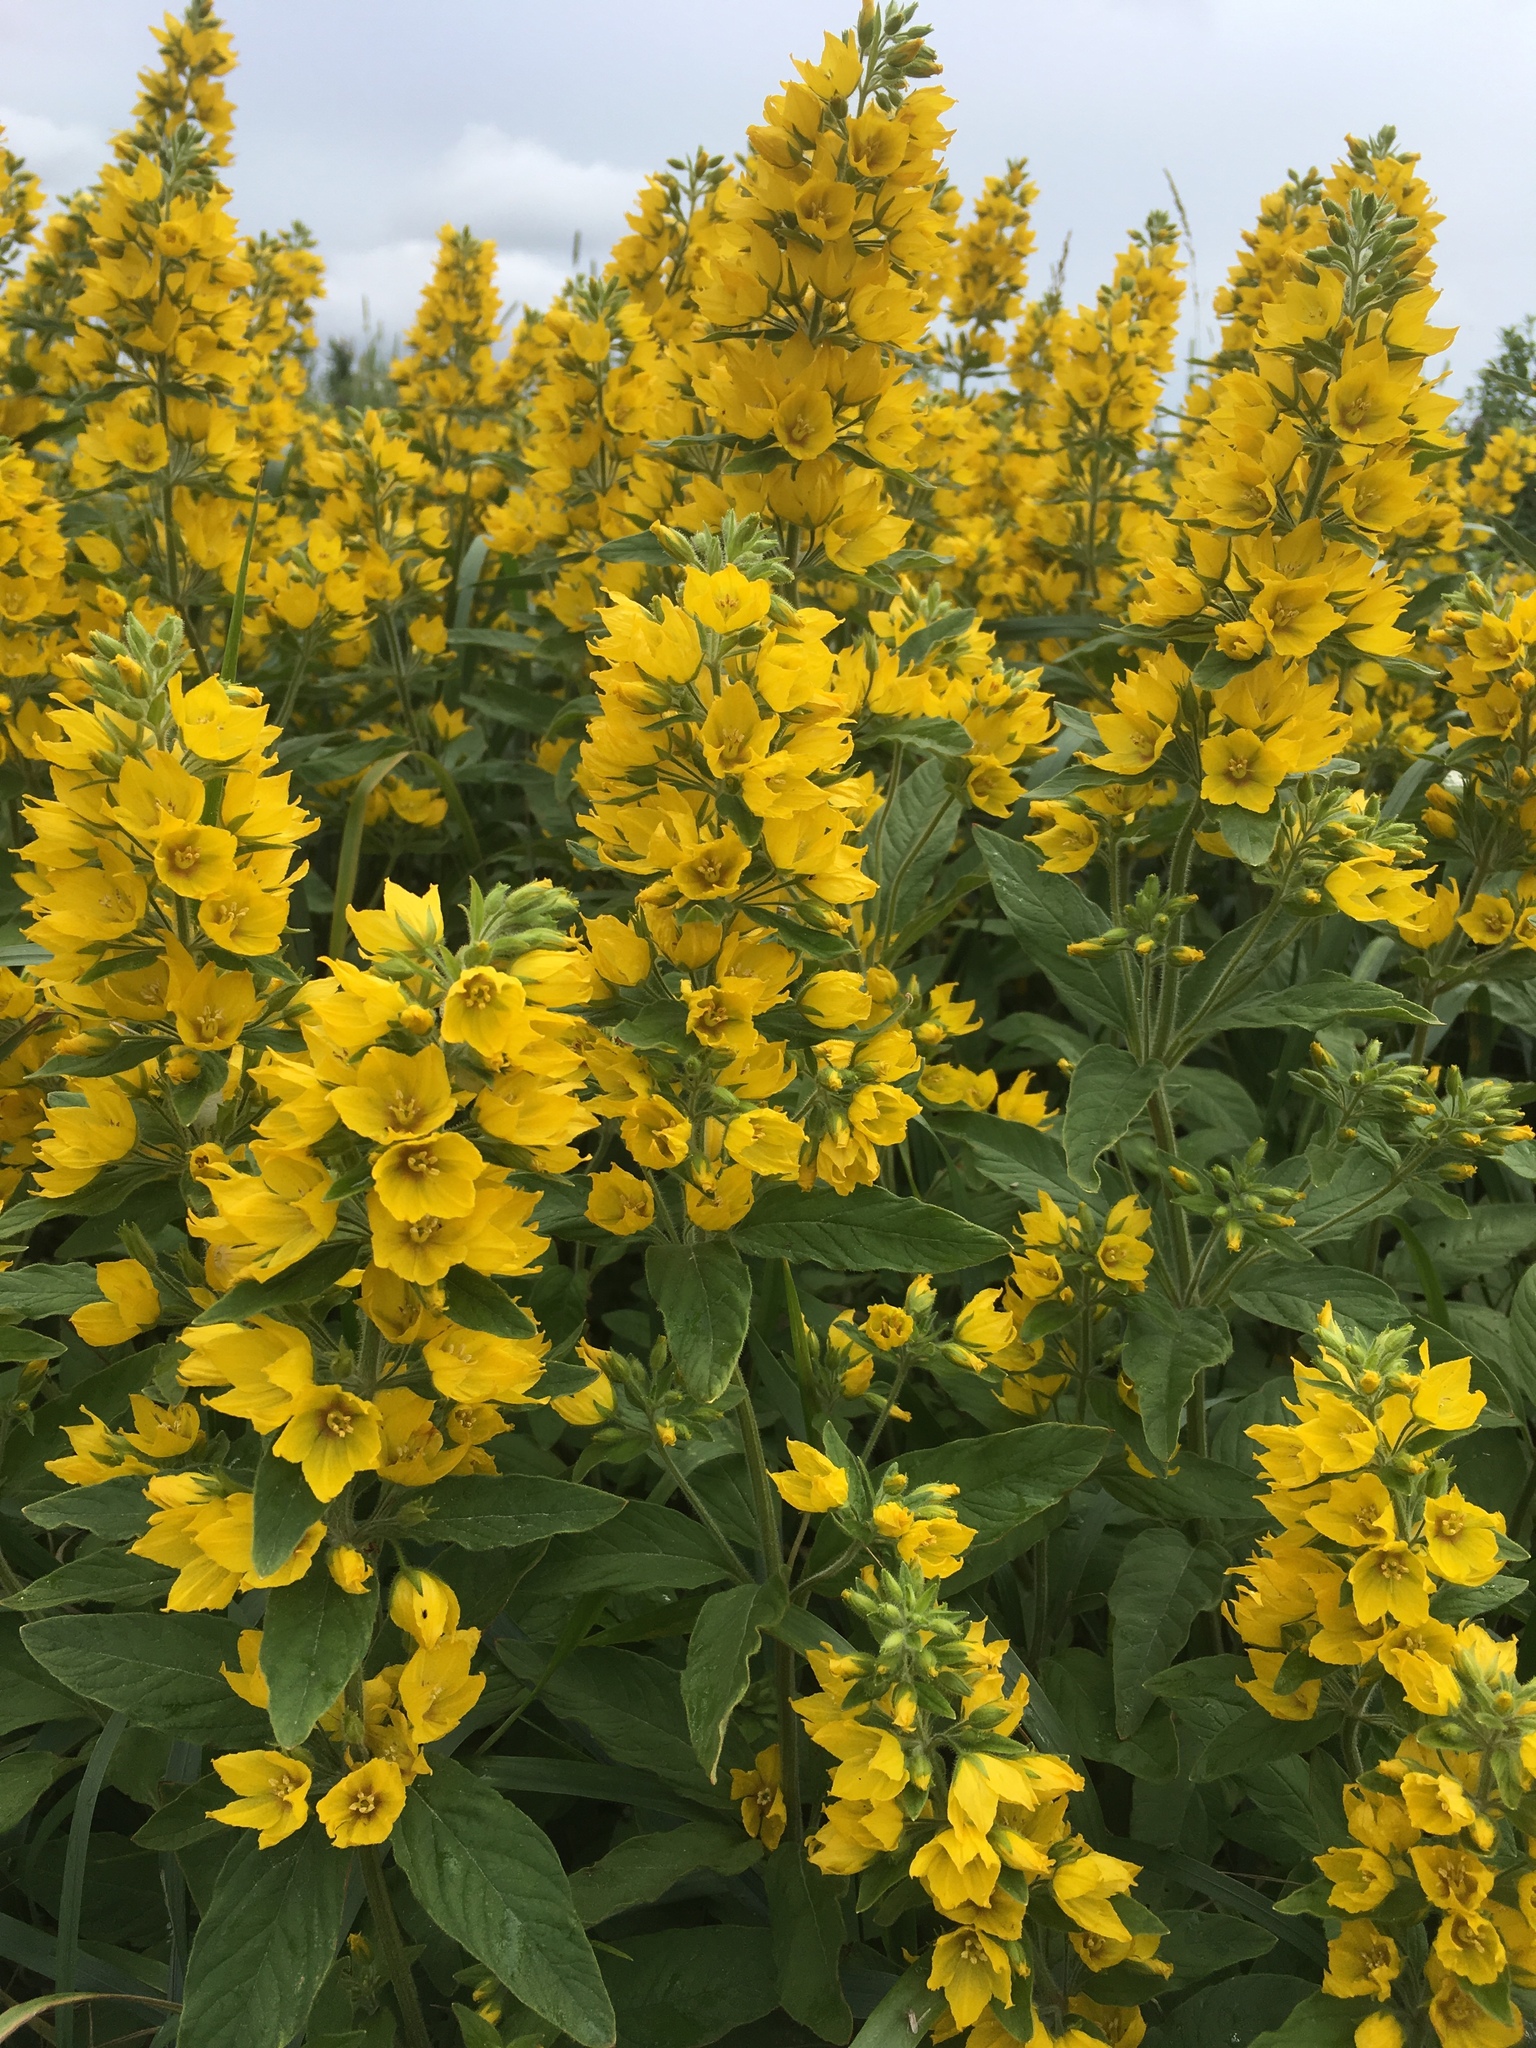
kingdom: Plantae
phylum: Tracheophyta
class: Magnoliopsida
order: Ericales
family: Primulaceae
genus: Lysimachia
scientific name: Lysimachia punctata
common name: Dotted loosestrife
